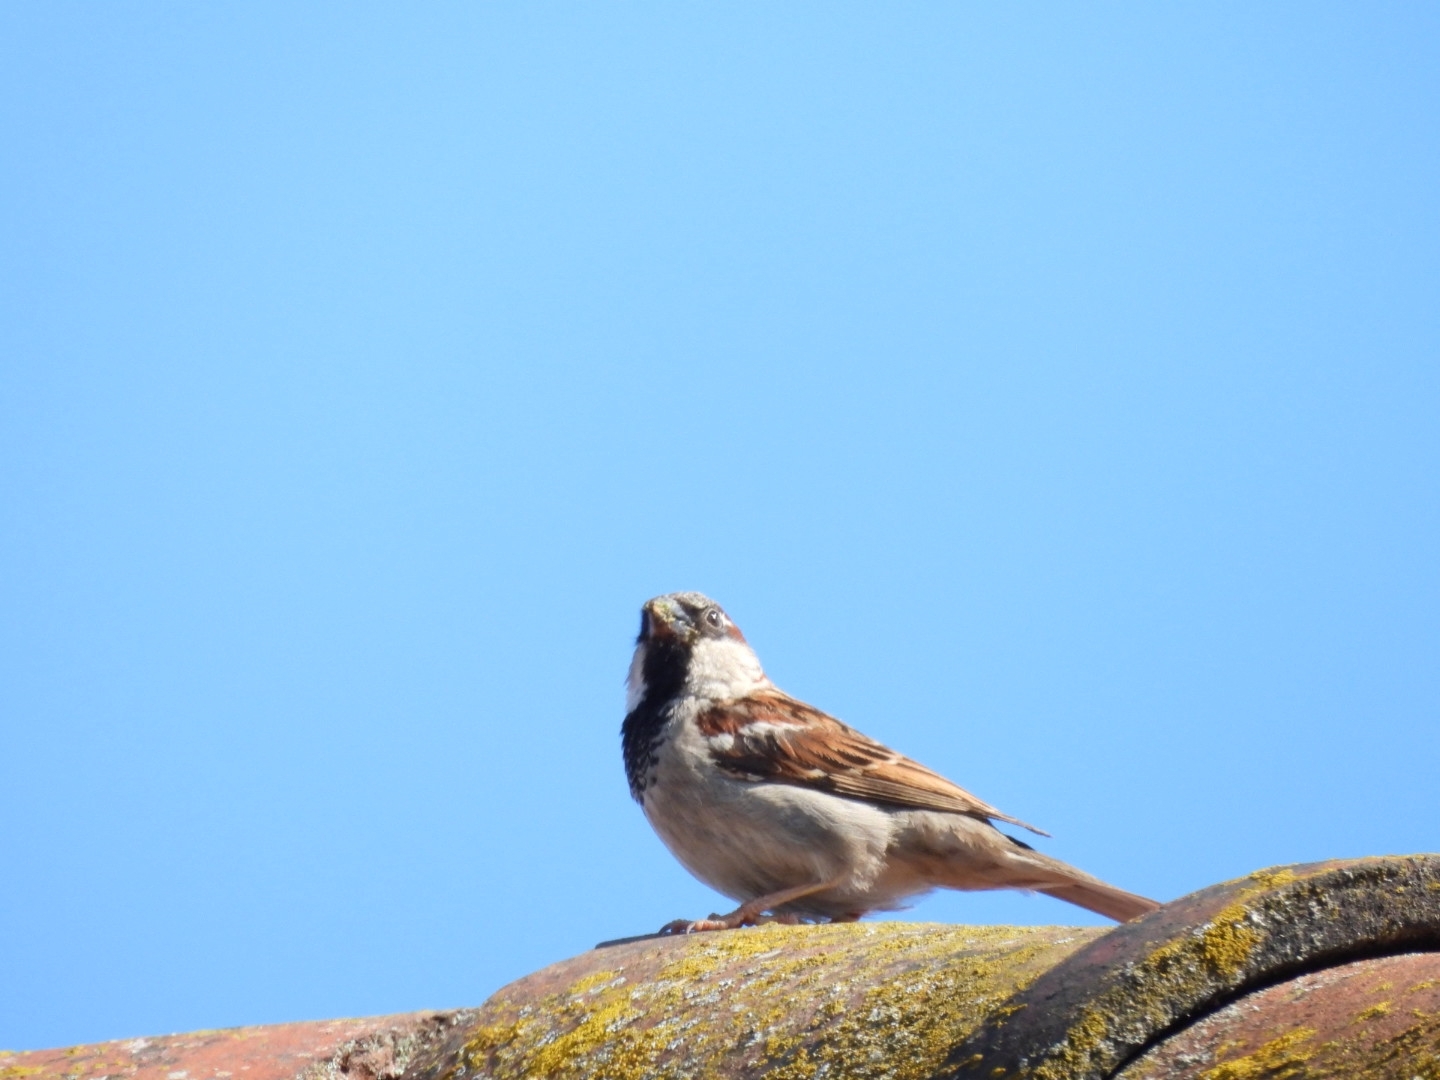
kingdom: Animalia
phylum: Chordata
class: Aves
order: Passeriformes
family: Passeridae
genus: Passer
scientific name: Passer domesticus
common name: House sparrow
